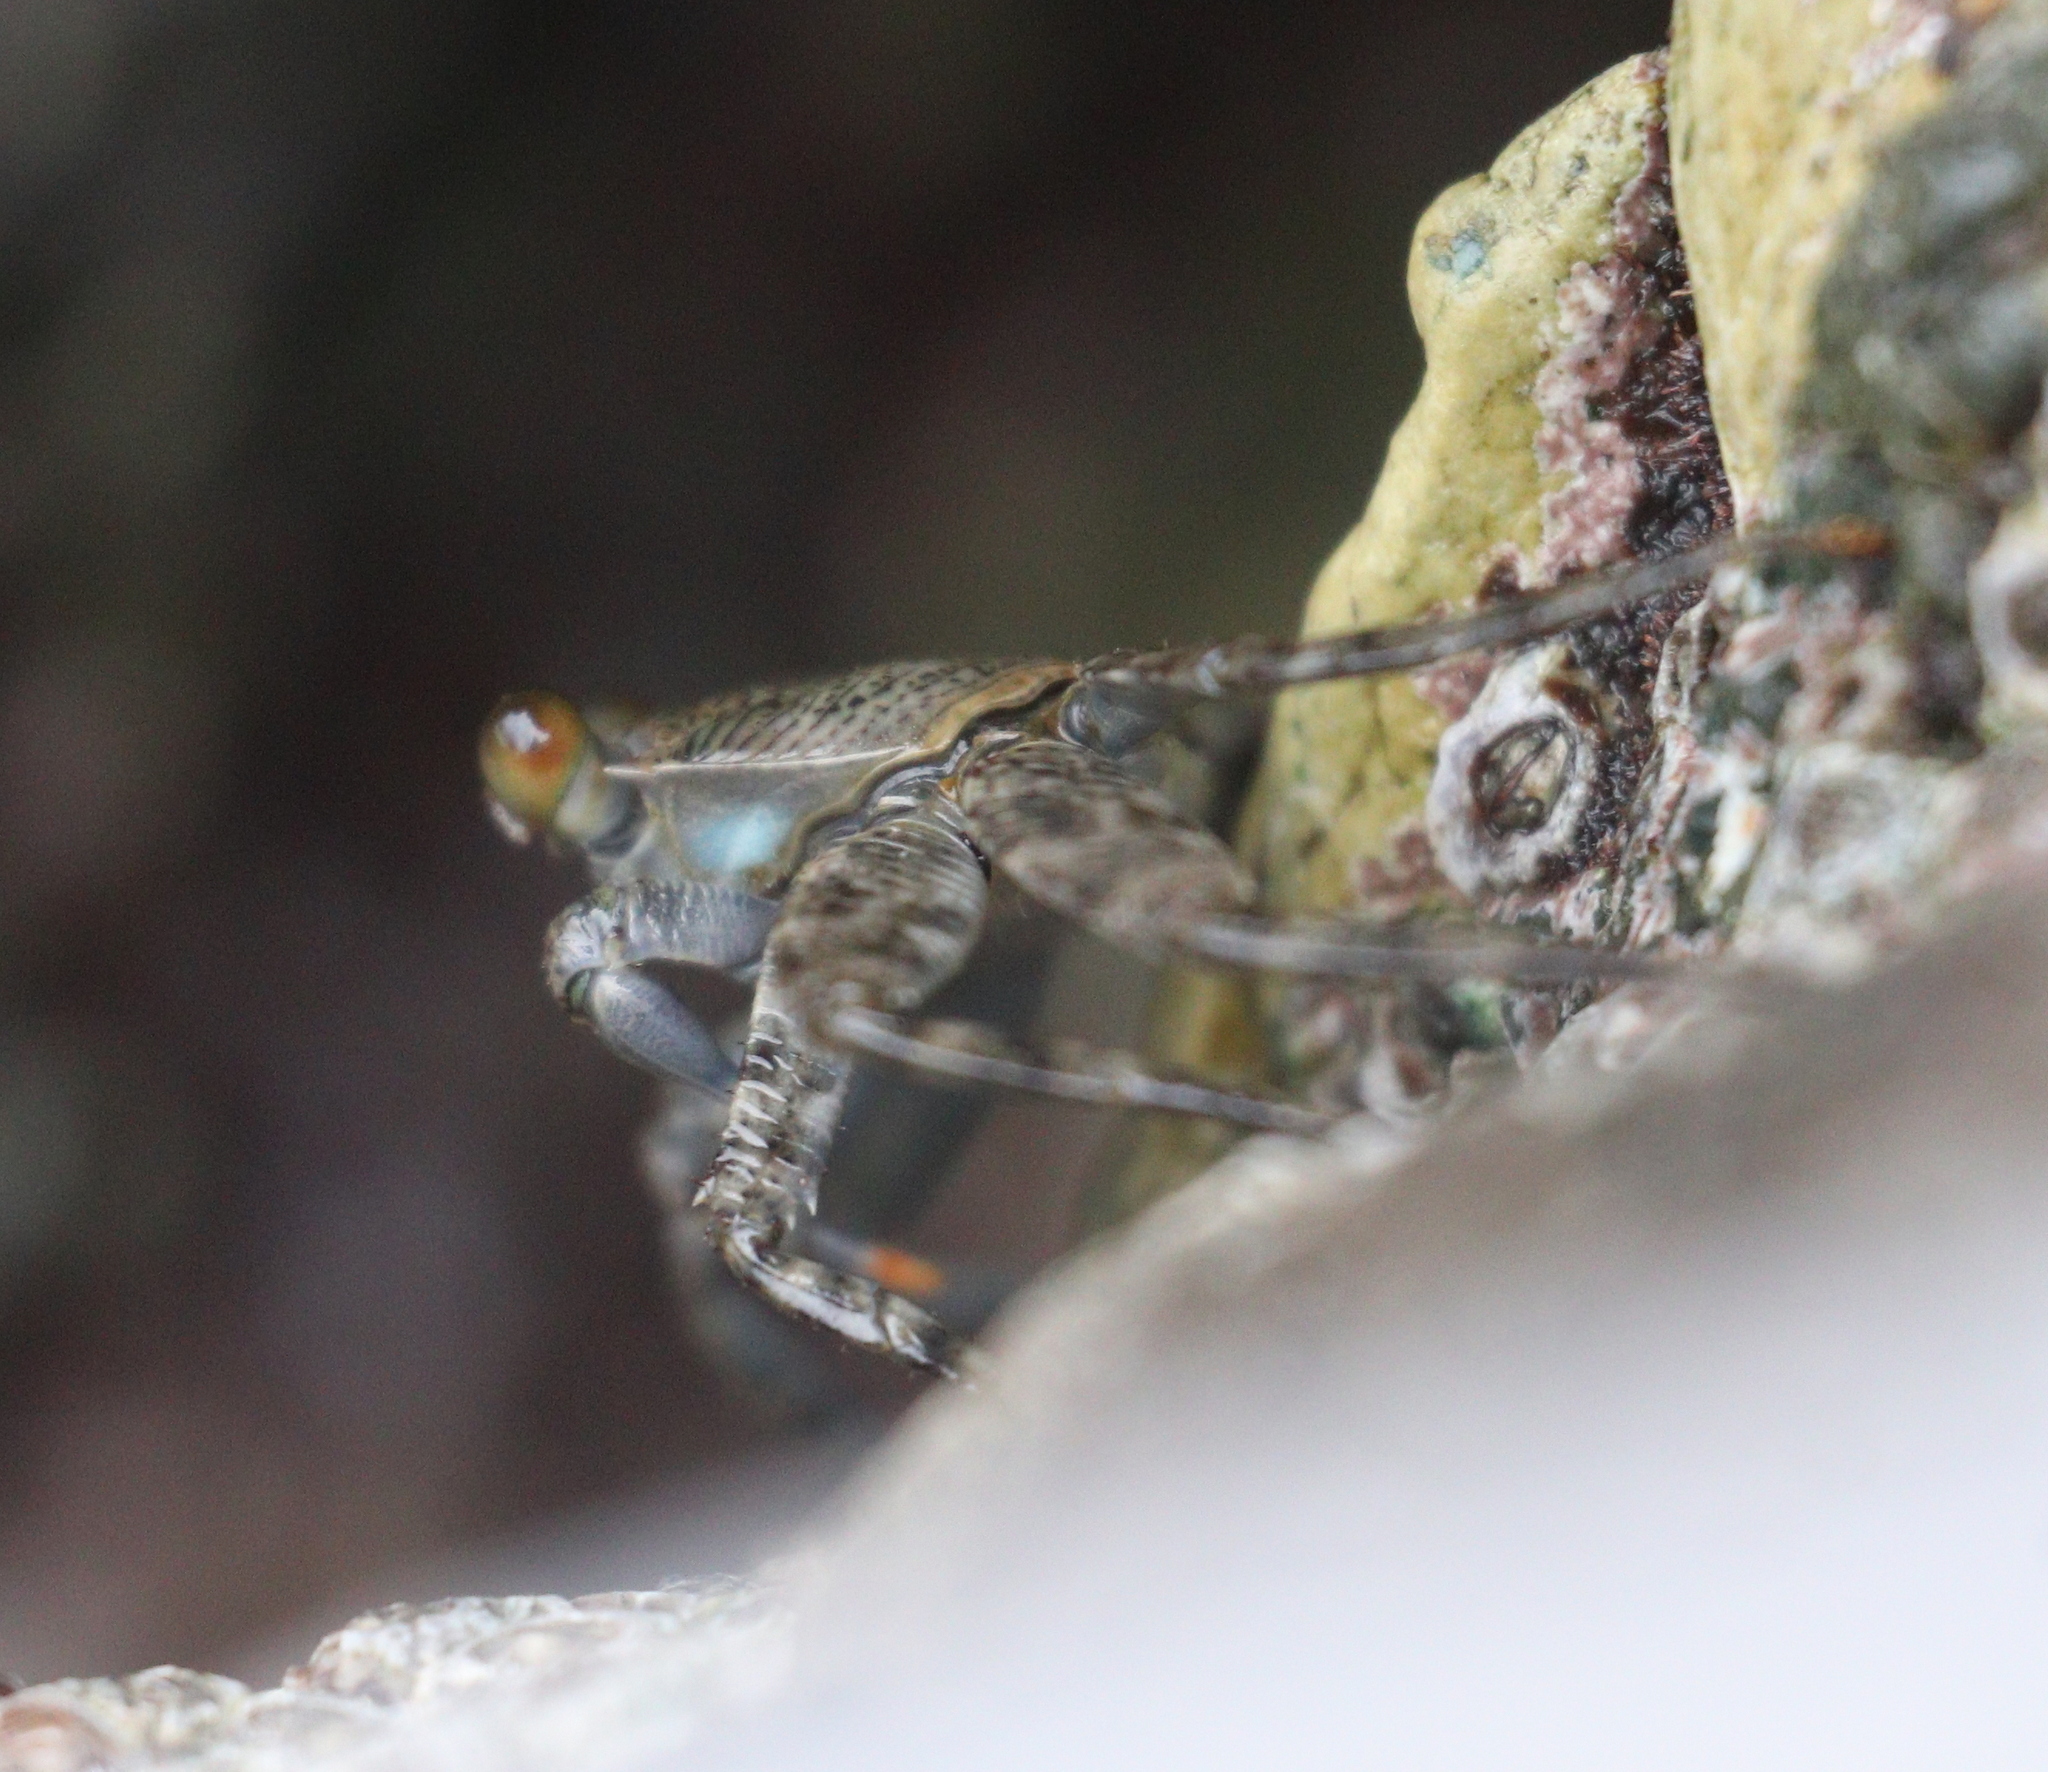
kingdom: Animalia
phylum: Arthropoda
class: Malacostraca
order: Decapoda
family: Grapsidae
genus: Grapsus
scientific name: Grapsus grapsus
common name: Sally lightfoot
